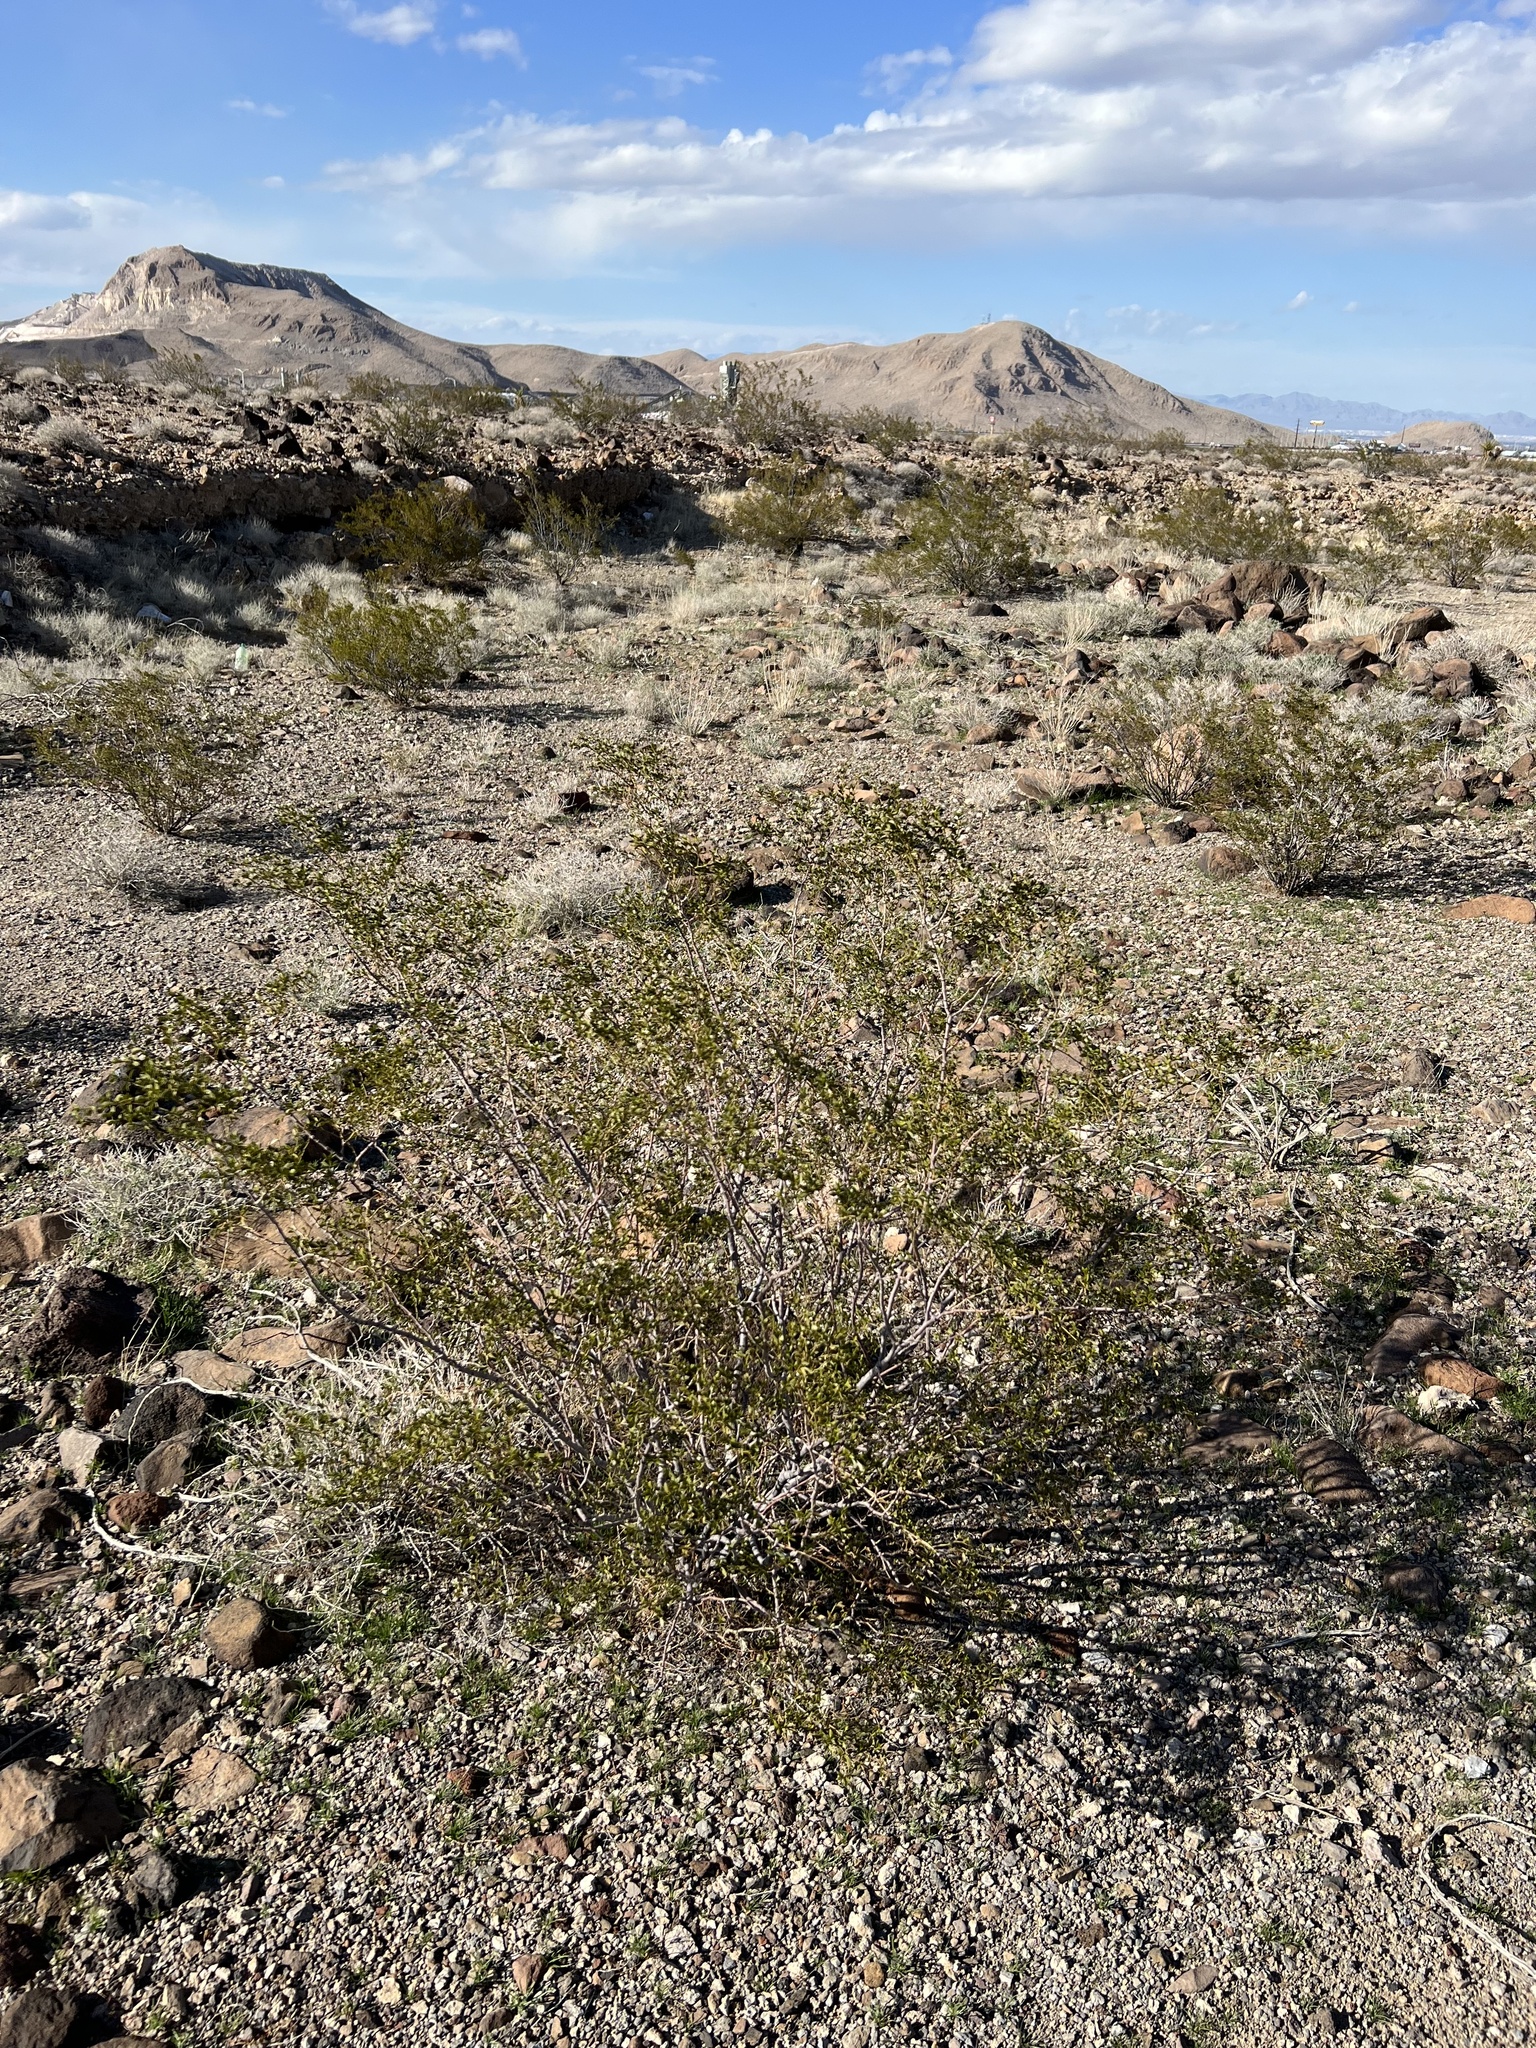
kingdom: Plantae
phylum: Tracheophyta
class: Magnoliopsida
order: Zygophyllales
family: Zygophyllaceae
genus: Larrea
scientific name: Larrea tridentata
